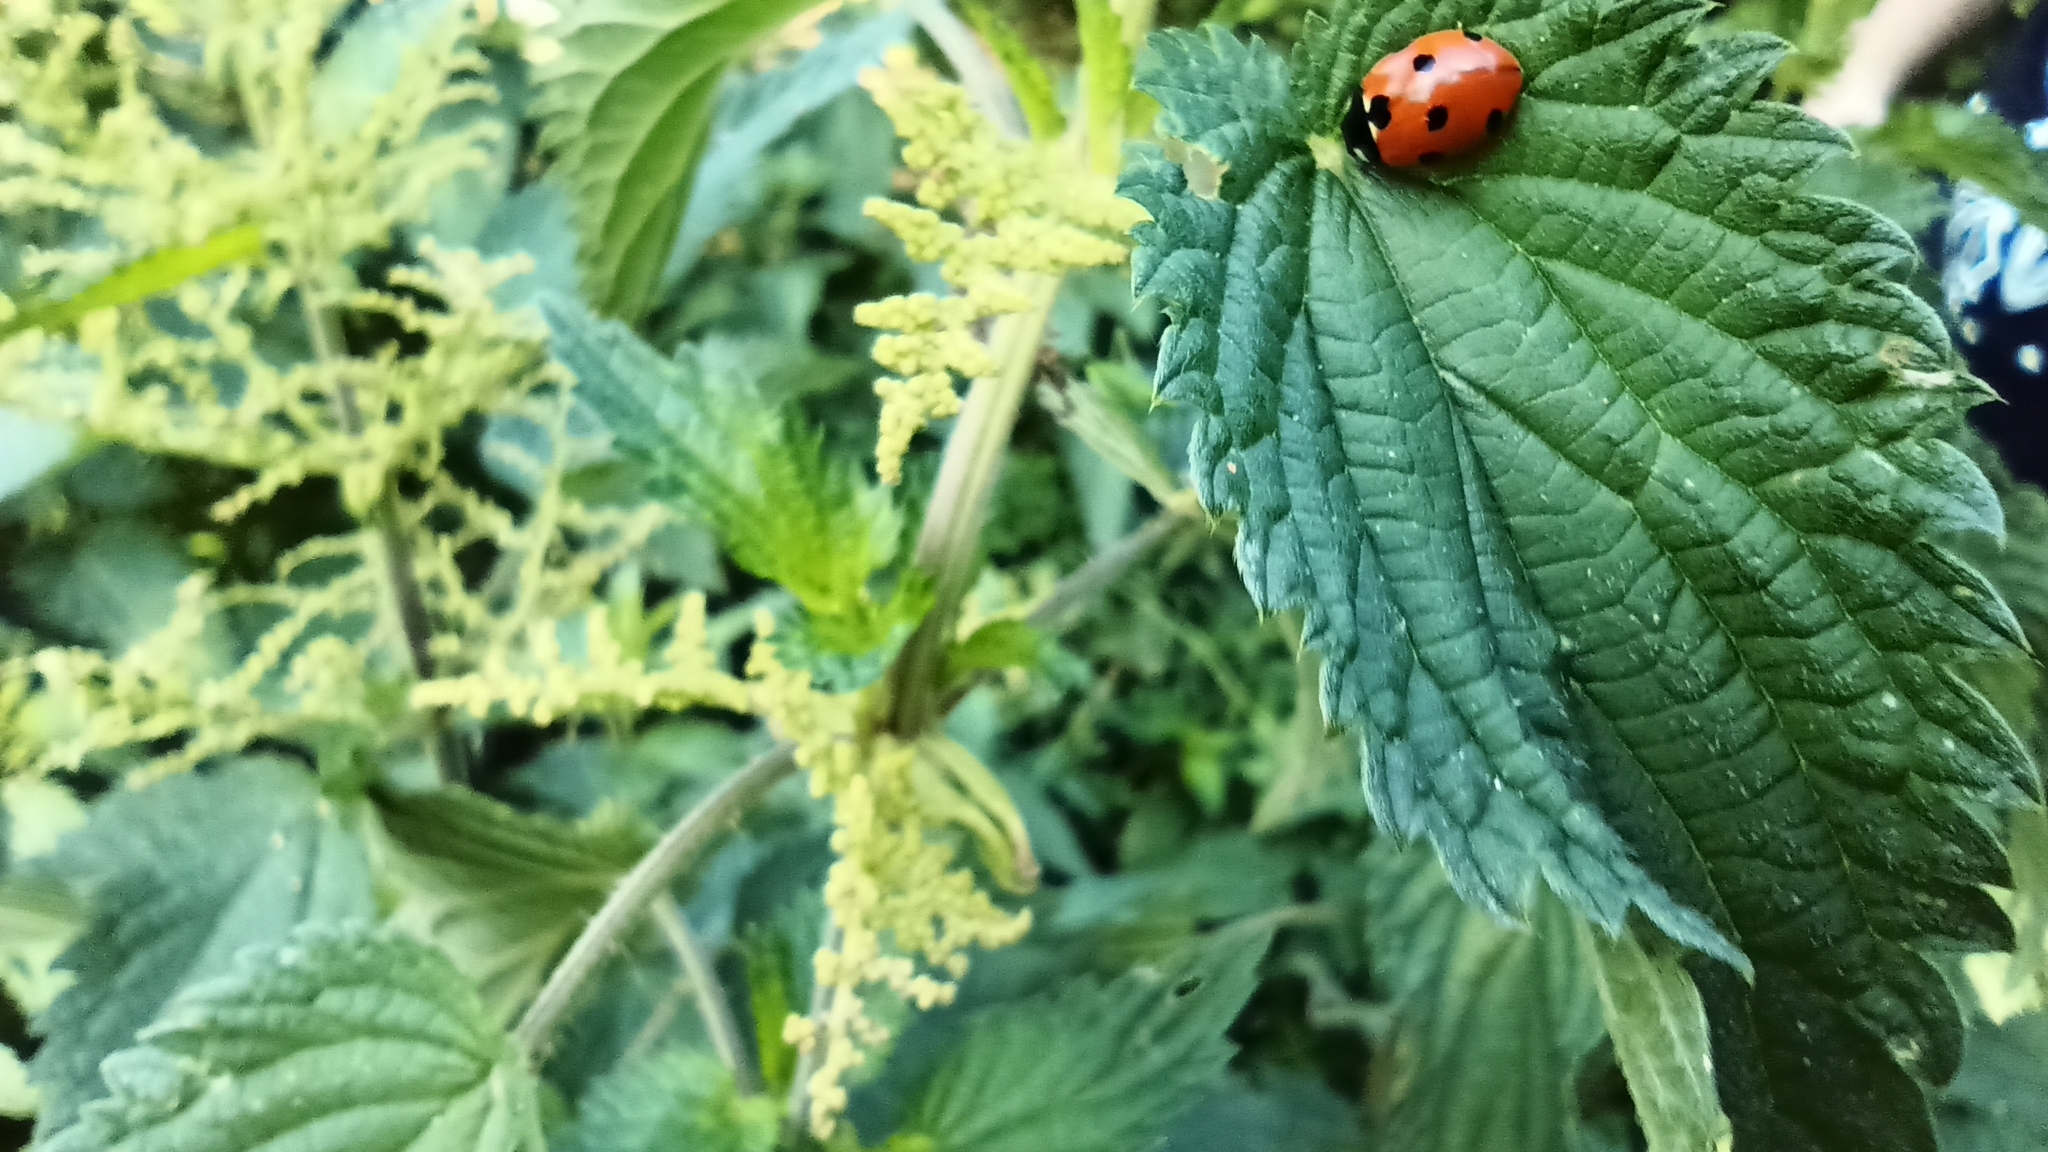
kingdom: Animalia
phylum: Arthropoda
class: Insecta
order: Coleoptera
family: Coccinellidae
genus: Coccinella
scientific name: Coccinella septempunctata
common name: Sevenspotted lady beetle
